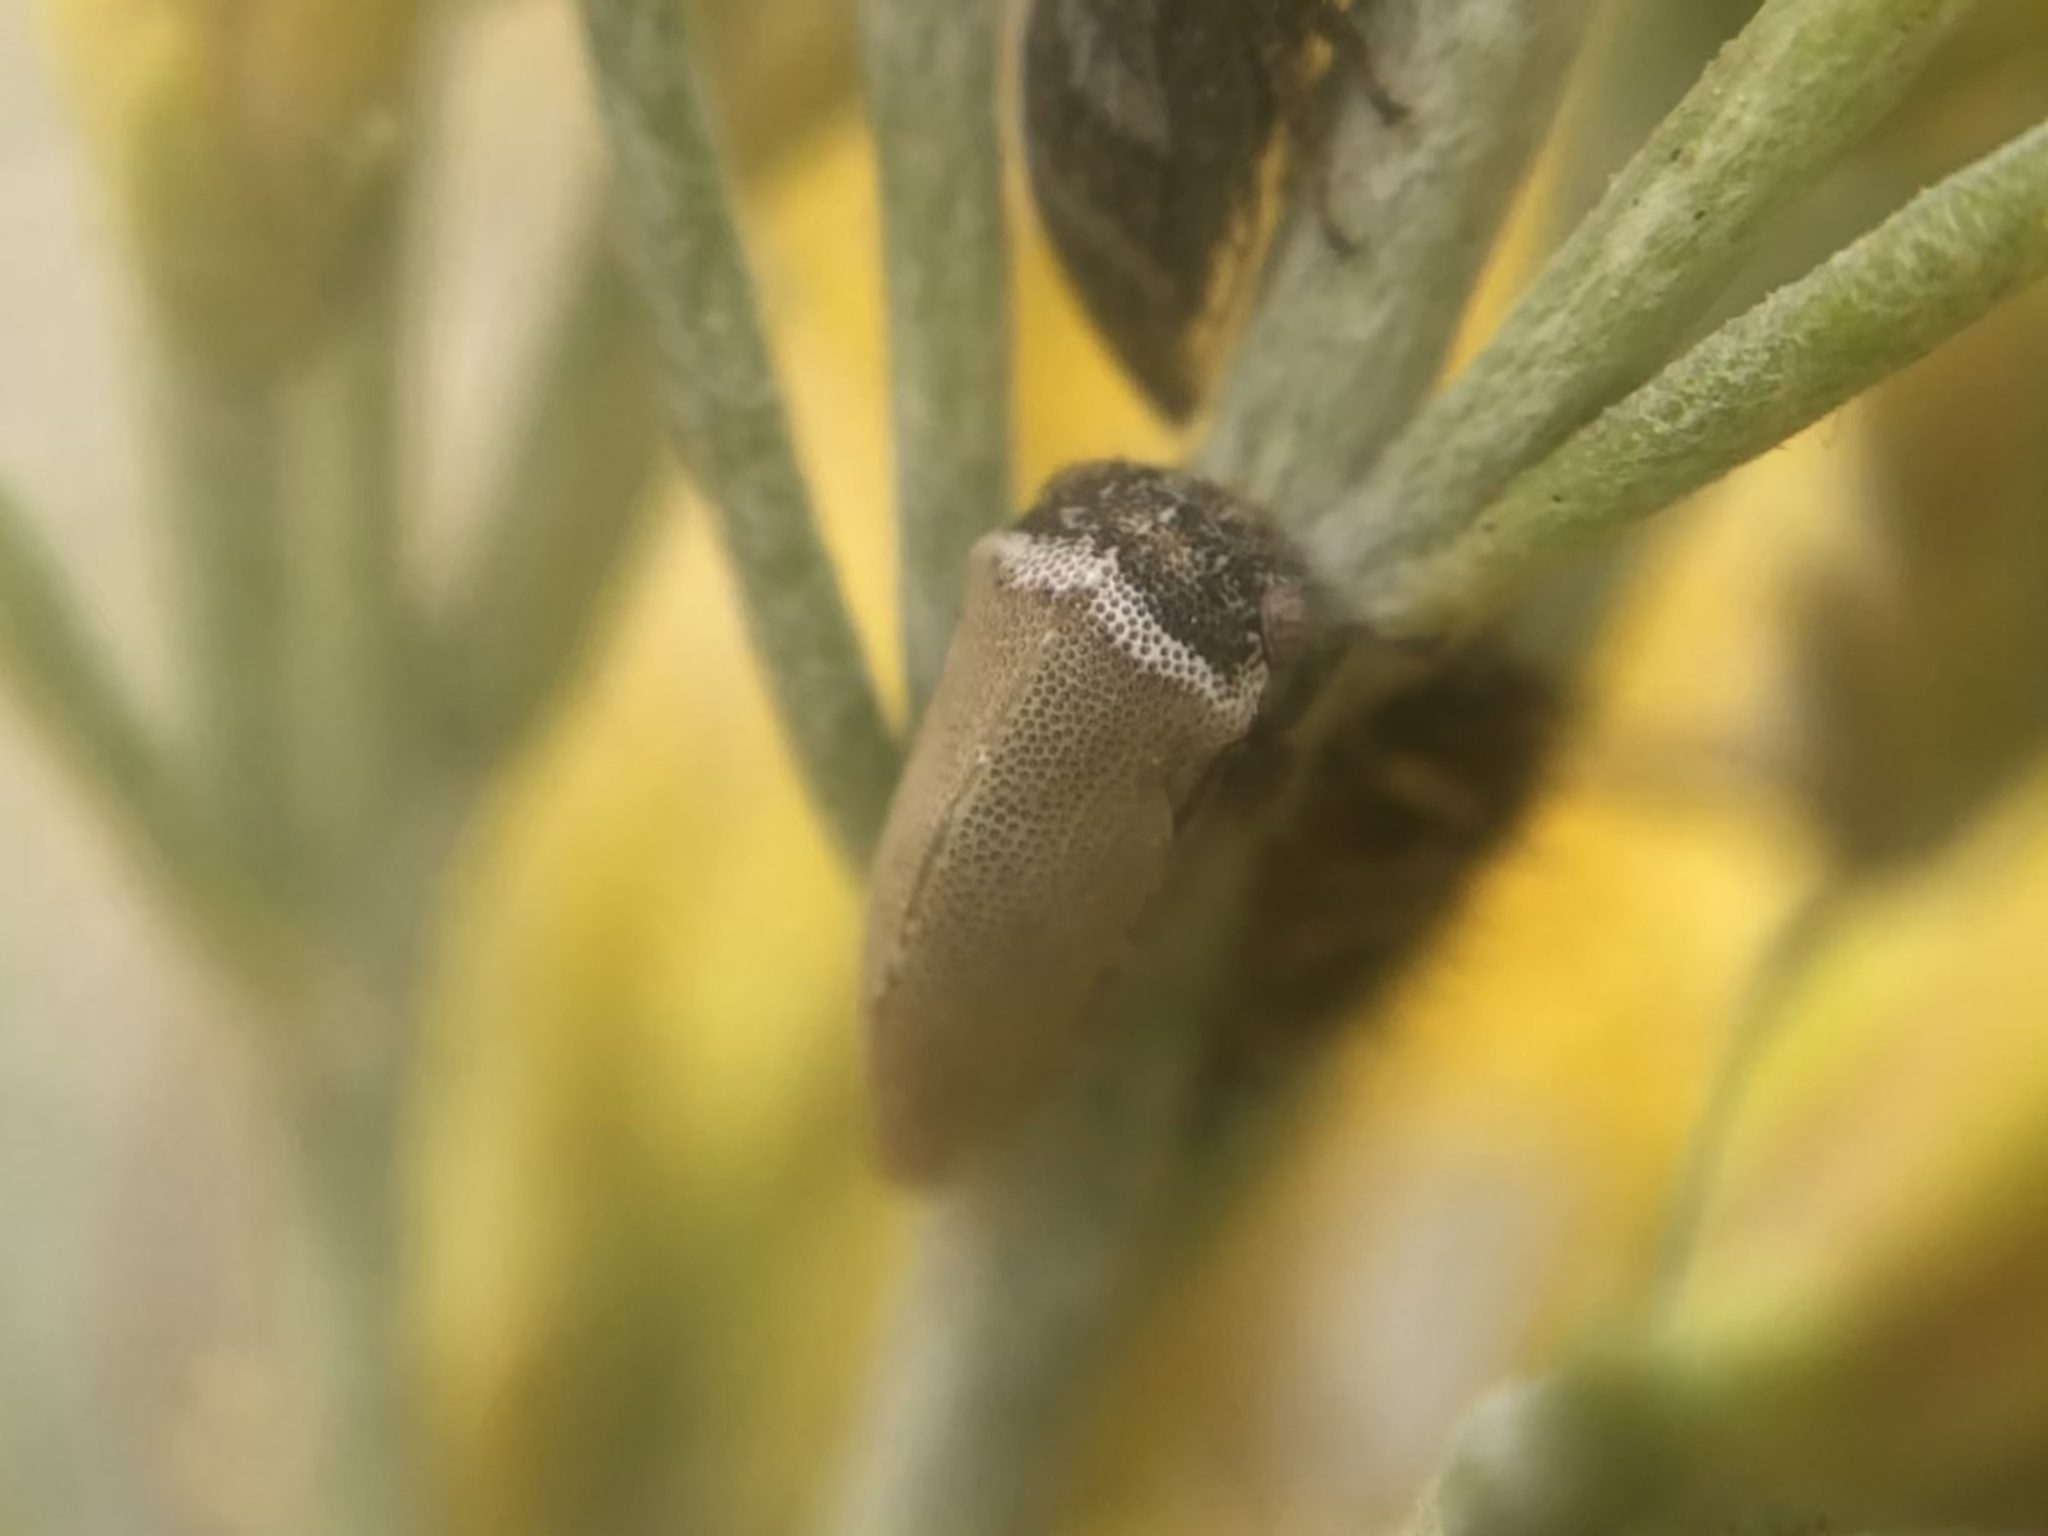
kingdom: Animalia
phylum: Arthropoda
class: Insecta
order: Hemiptera
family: Membracidae
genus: Publilia
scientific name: Publilia modesta
